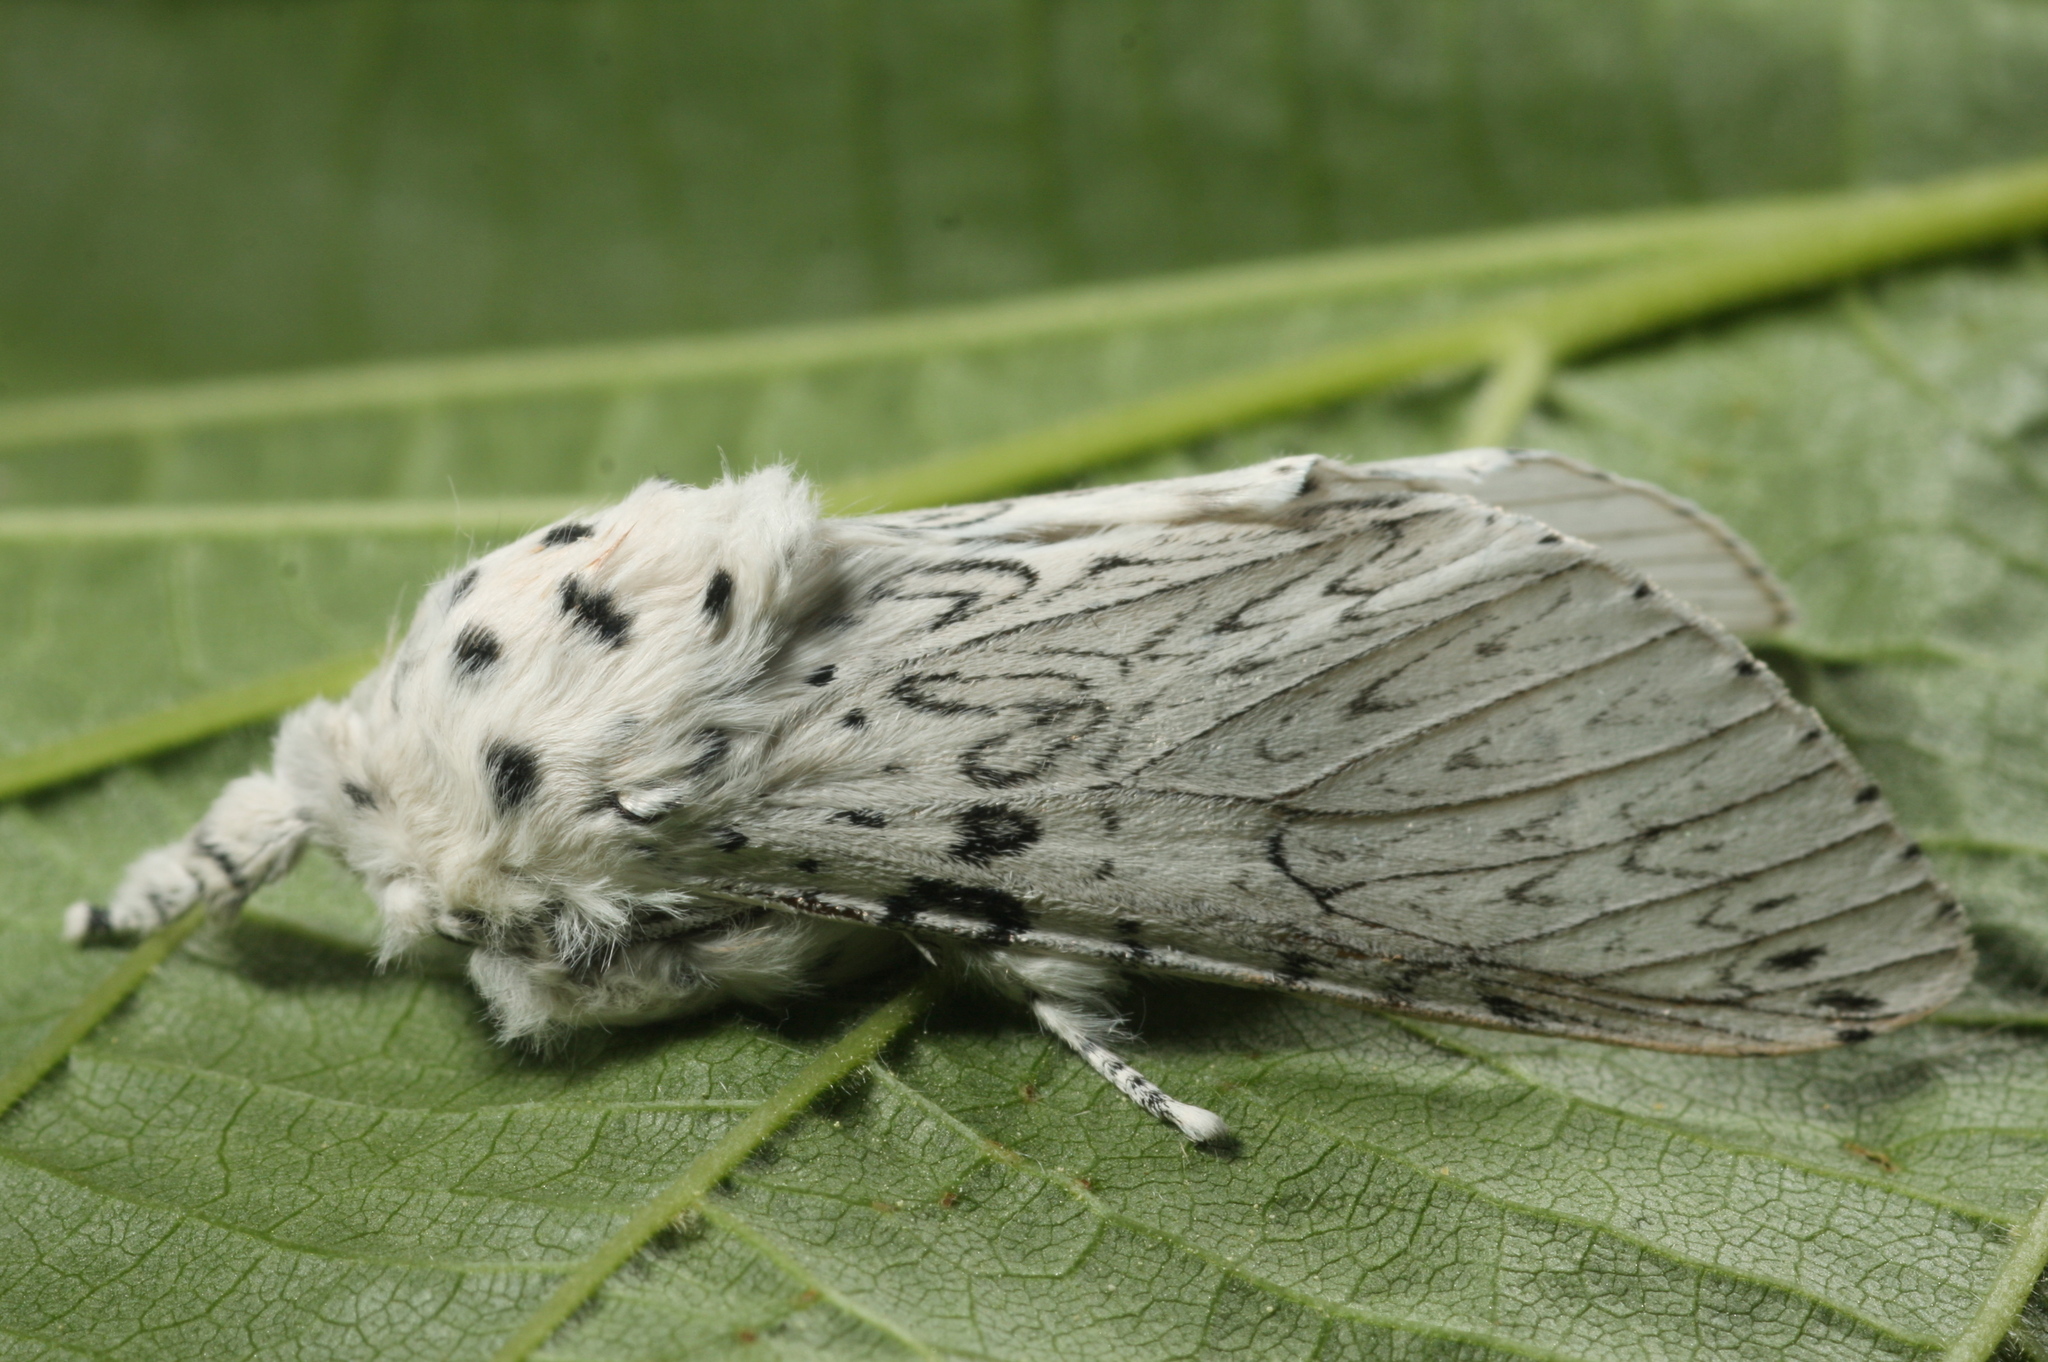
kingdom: Animalia
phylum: Arthropoda
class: Insecta
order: Lepidoptera
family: Notodontidae
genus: Cerura
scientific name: Cerura erminea
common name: Lesser puss moth
